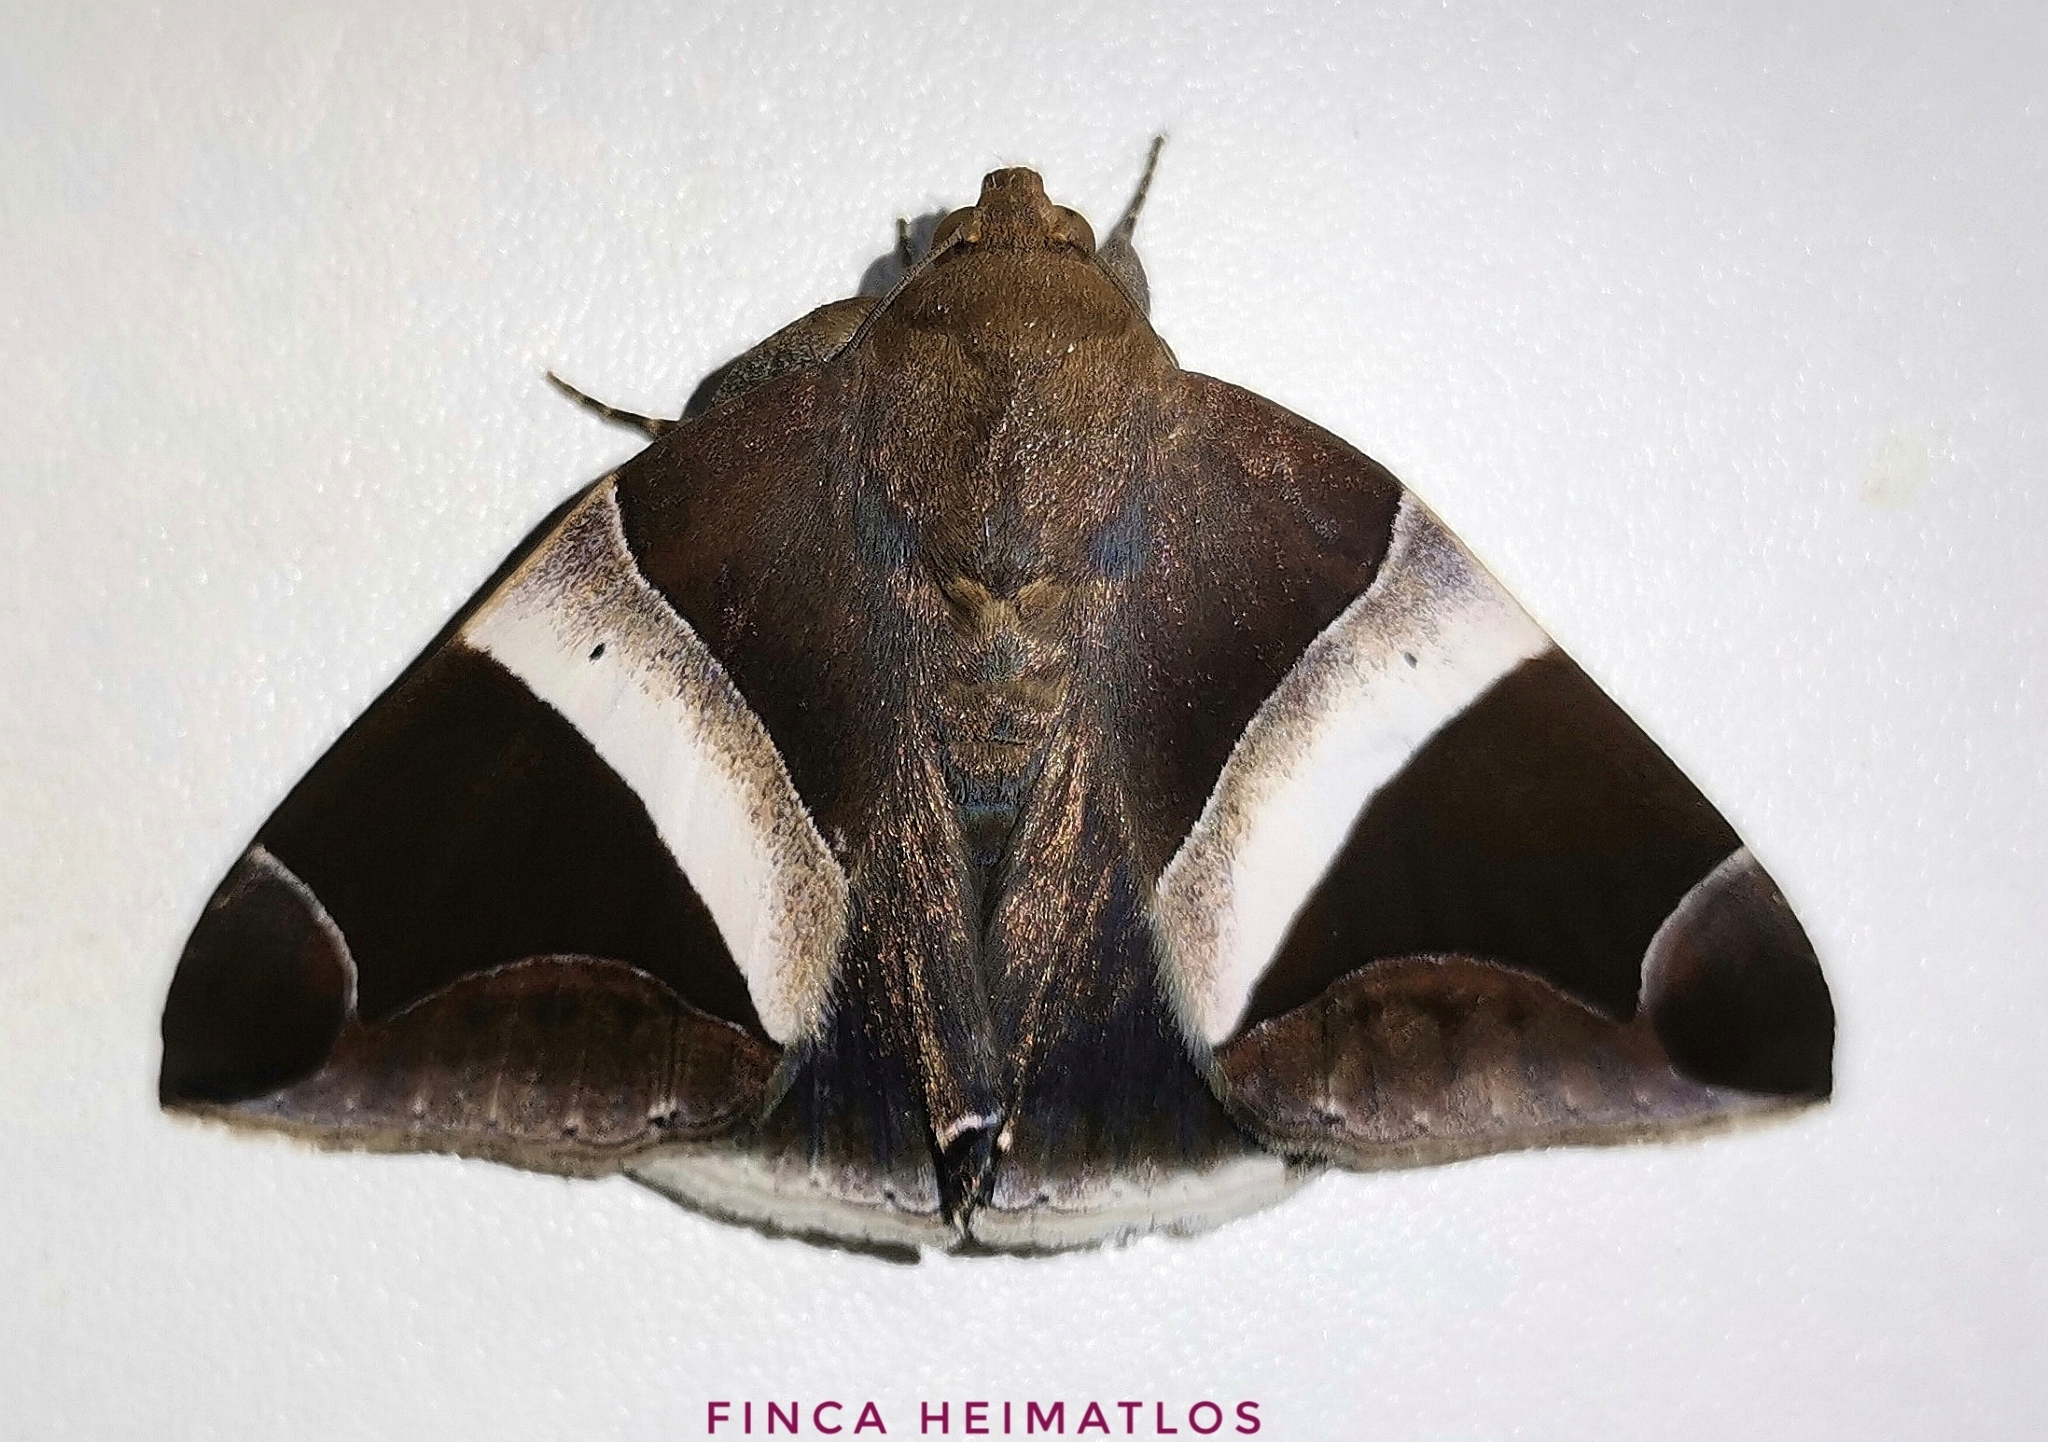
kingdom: Animalia
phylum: Arthropoda
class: Insecta
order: Lepidoptera
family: Erebidae
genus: Parallelia
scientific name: Parallelia expediens
